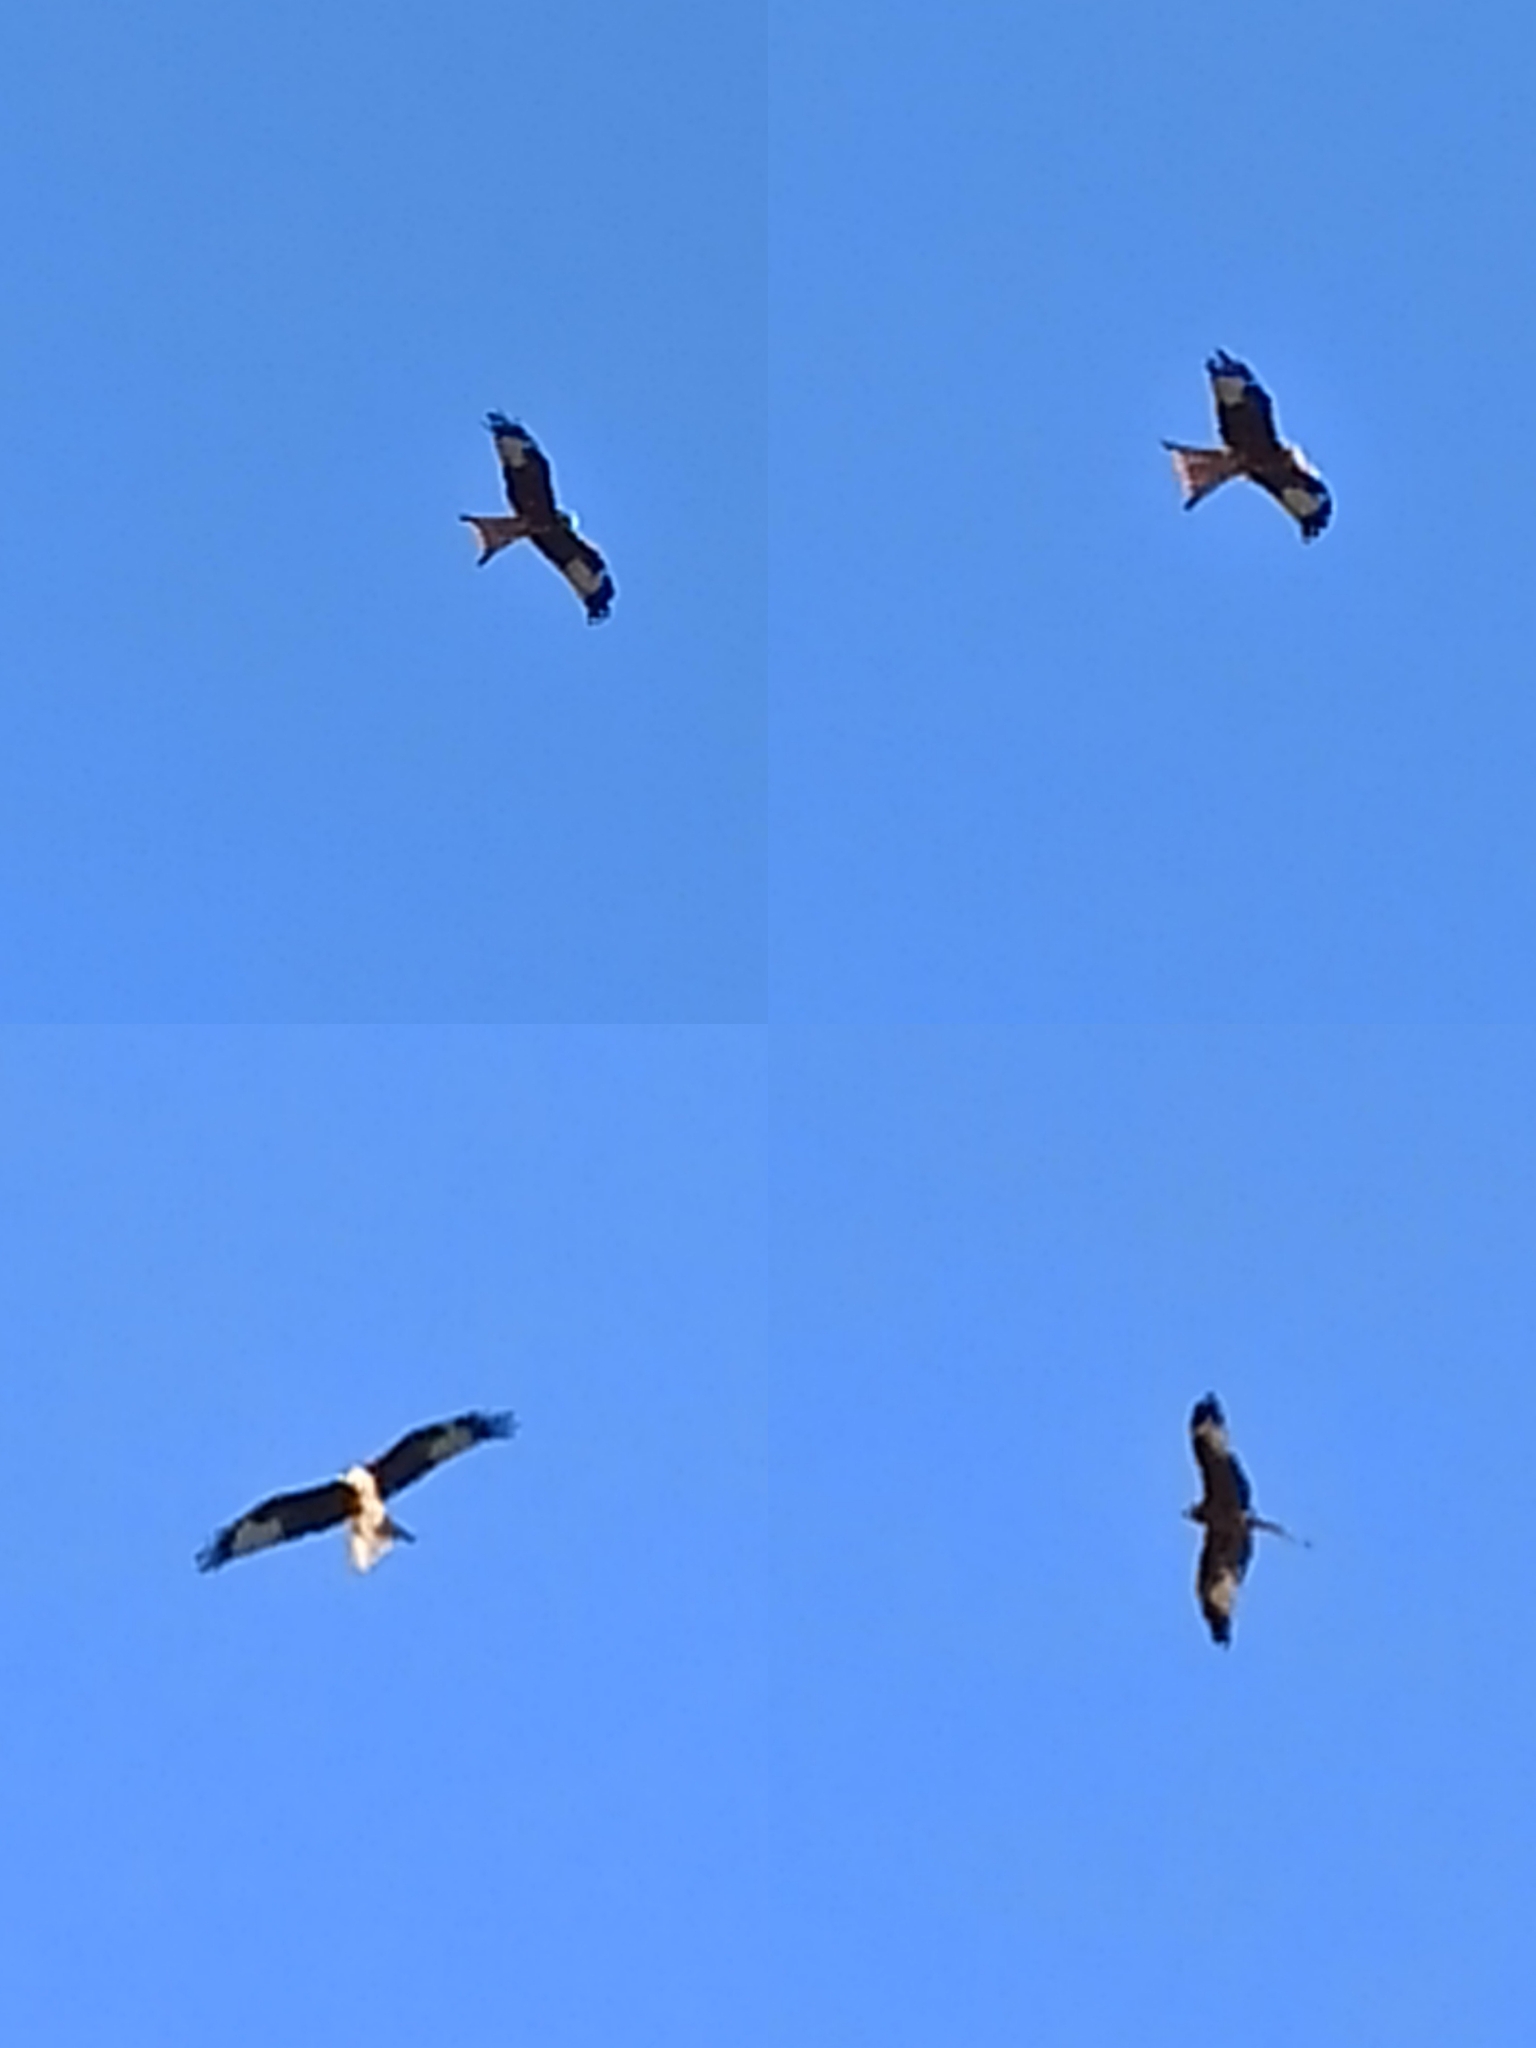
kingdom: Animalia
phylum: Chordata
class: Aves
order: Accipitriformes
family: Accipitridae
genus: Milvus
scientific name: Milvus milvus
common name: Red kite
